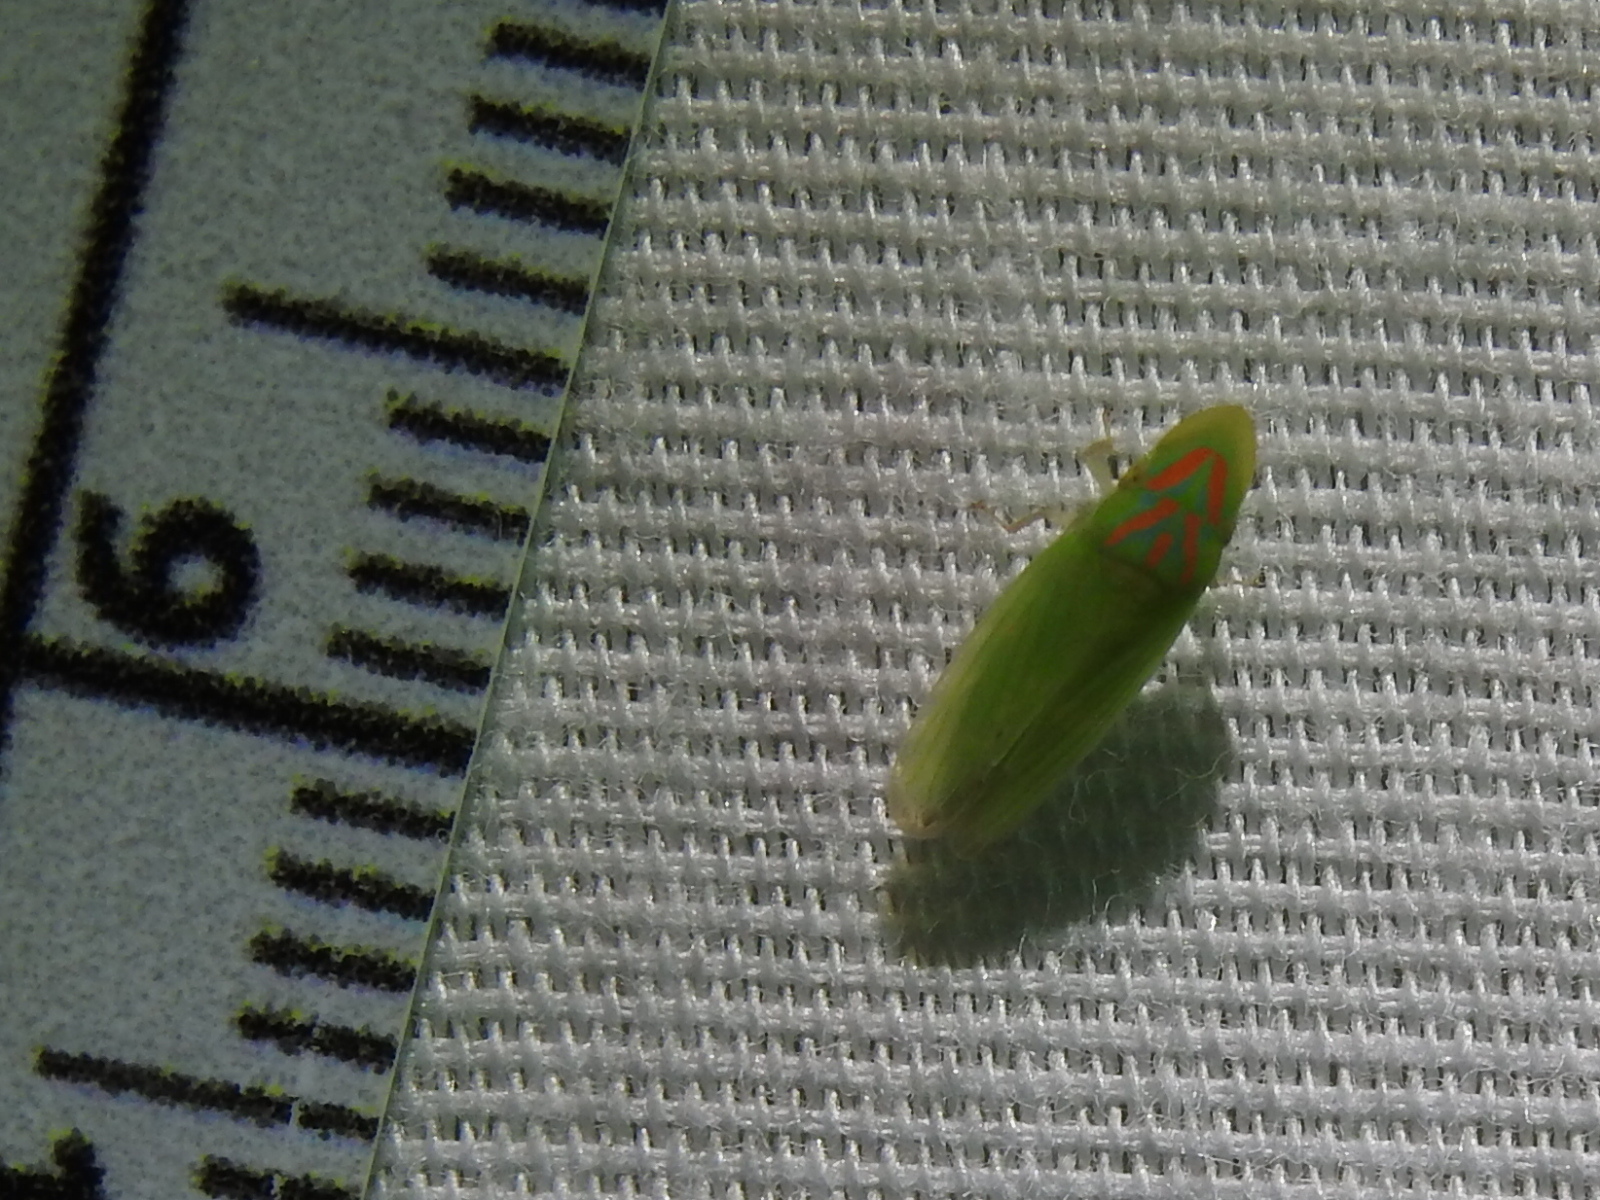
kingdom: Animalia
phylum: Arthropoda
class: Insecta
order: Hemiptera
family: Cicadellidae
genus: Spangbergiella
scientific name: Spangbergiella vulnerata
